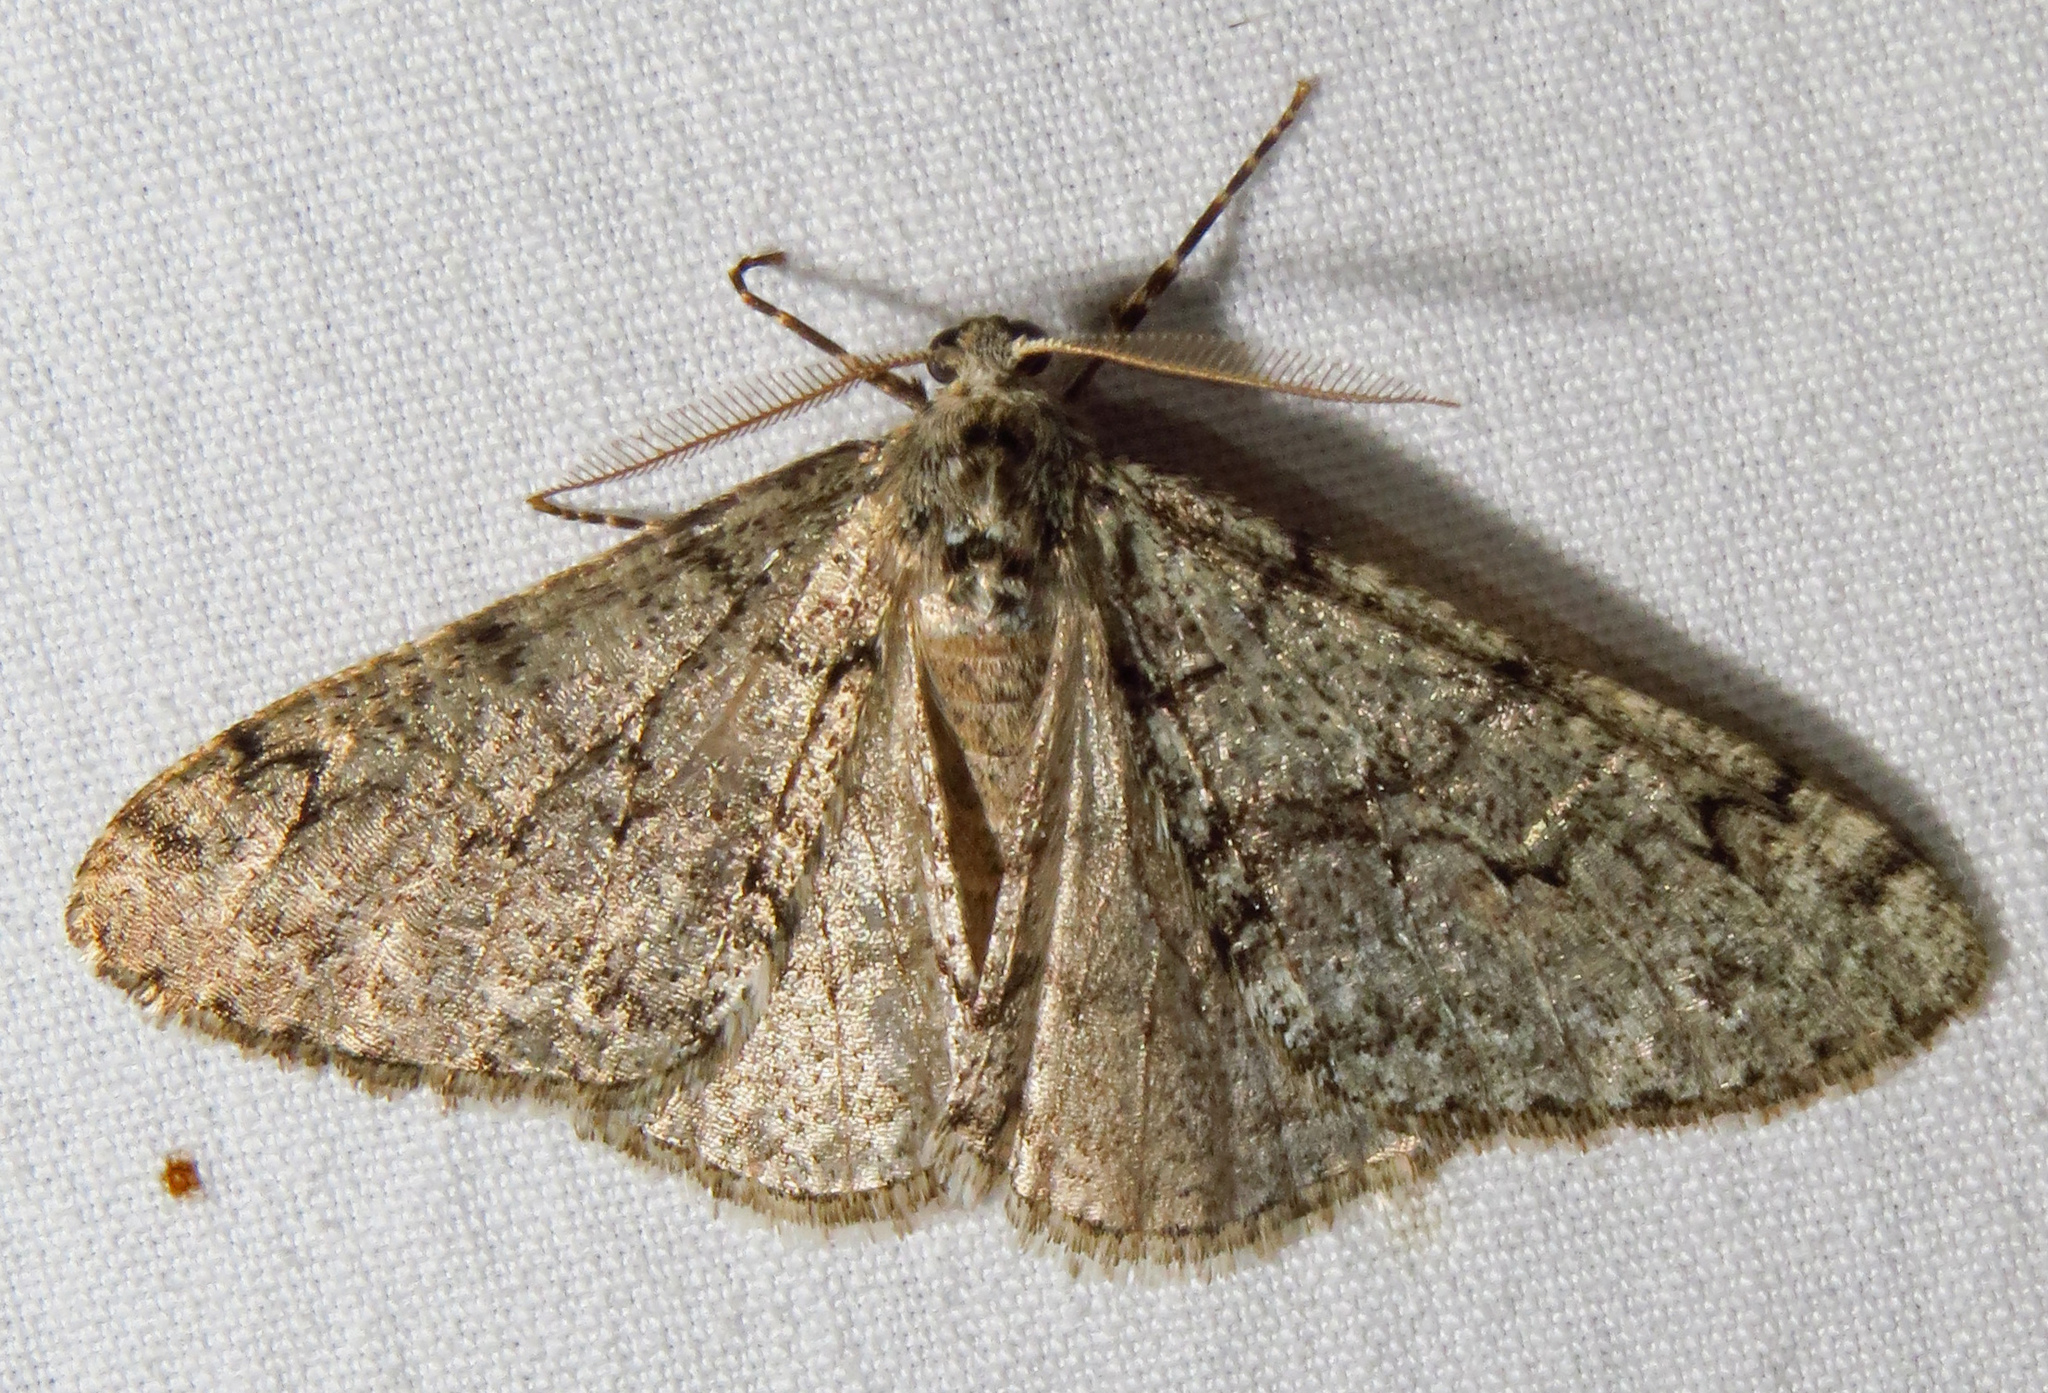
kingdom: Animalia
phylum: Arthropoda
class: Insecta
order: Lepidoptera
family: Geometridae
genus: Phigalia
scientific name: Phigalia denticulata
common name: Toothed phigalia
